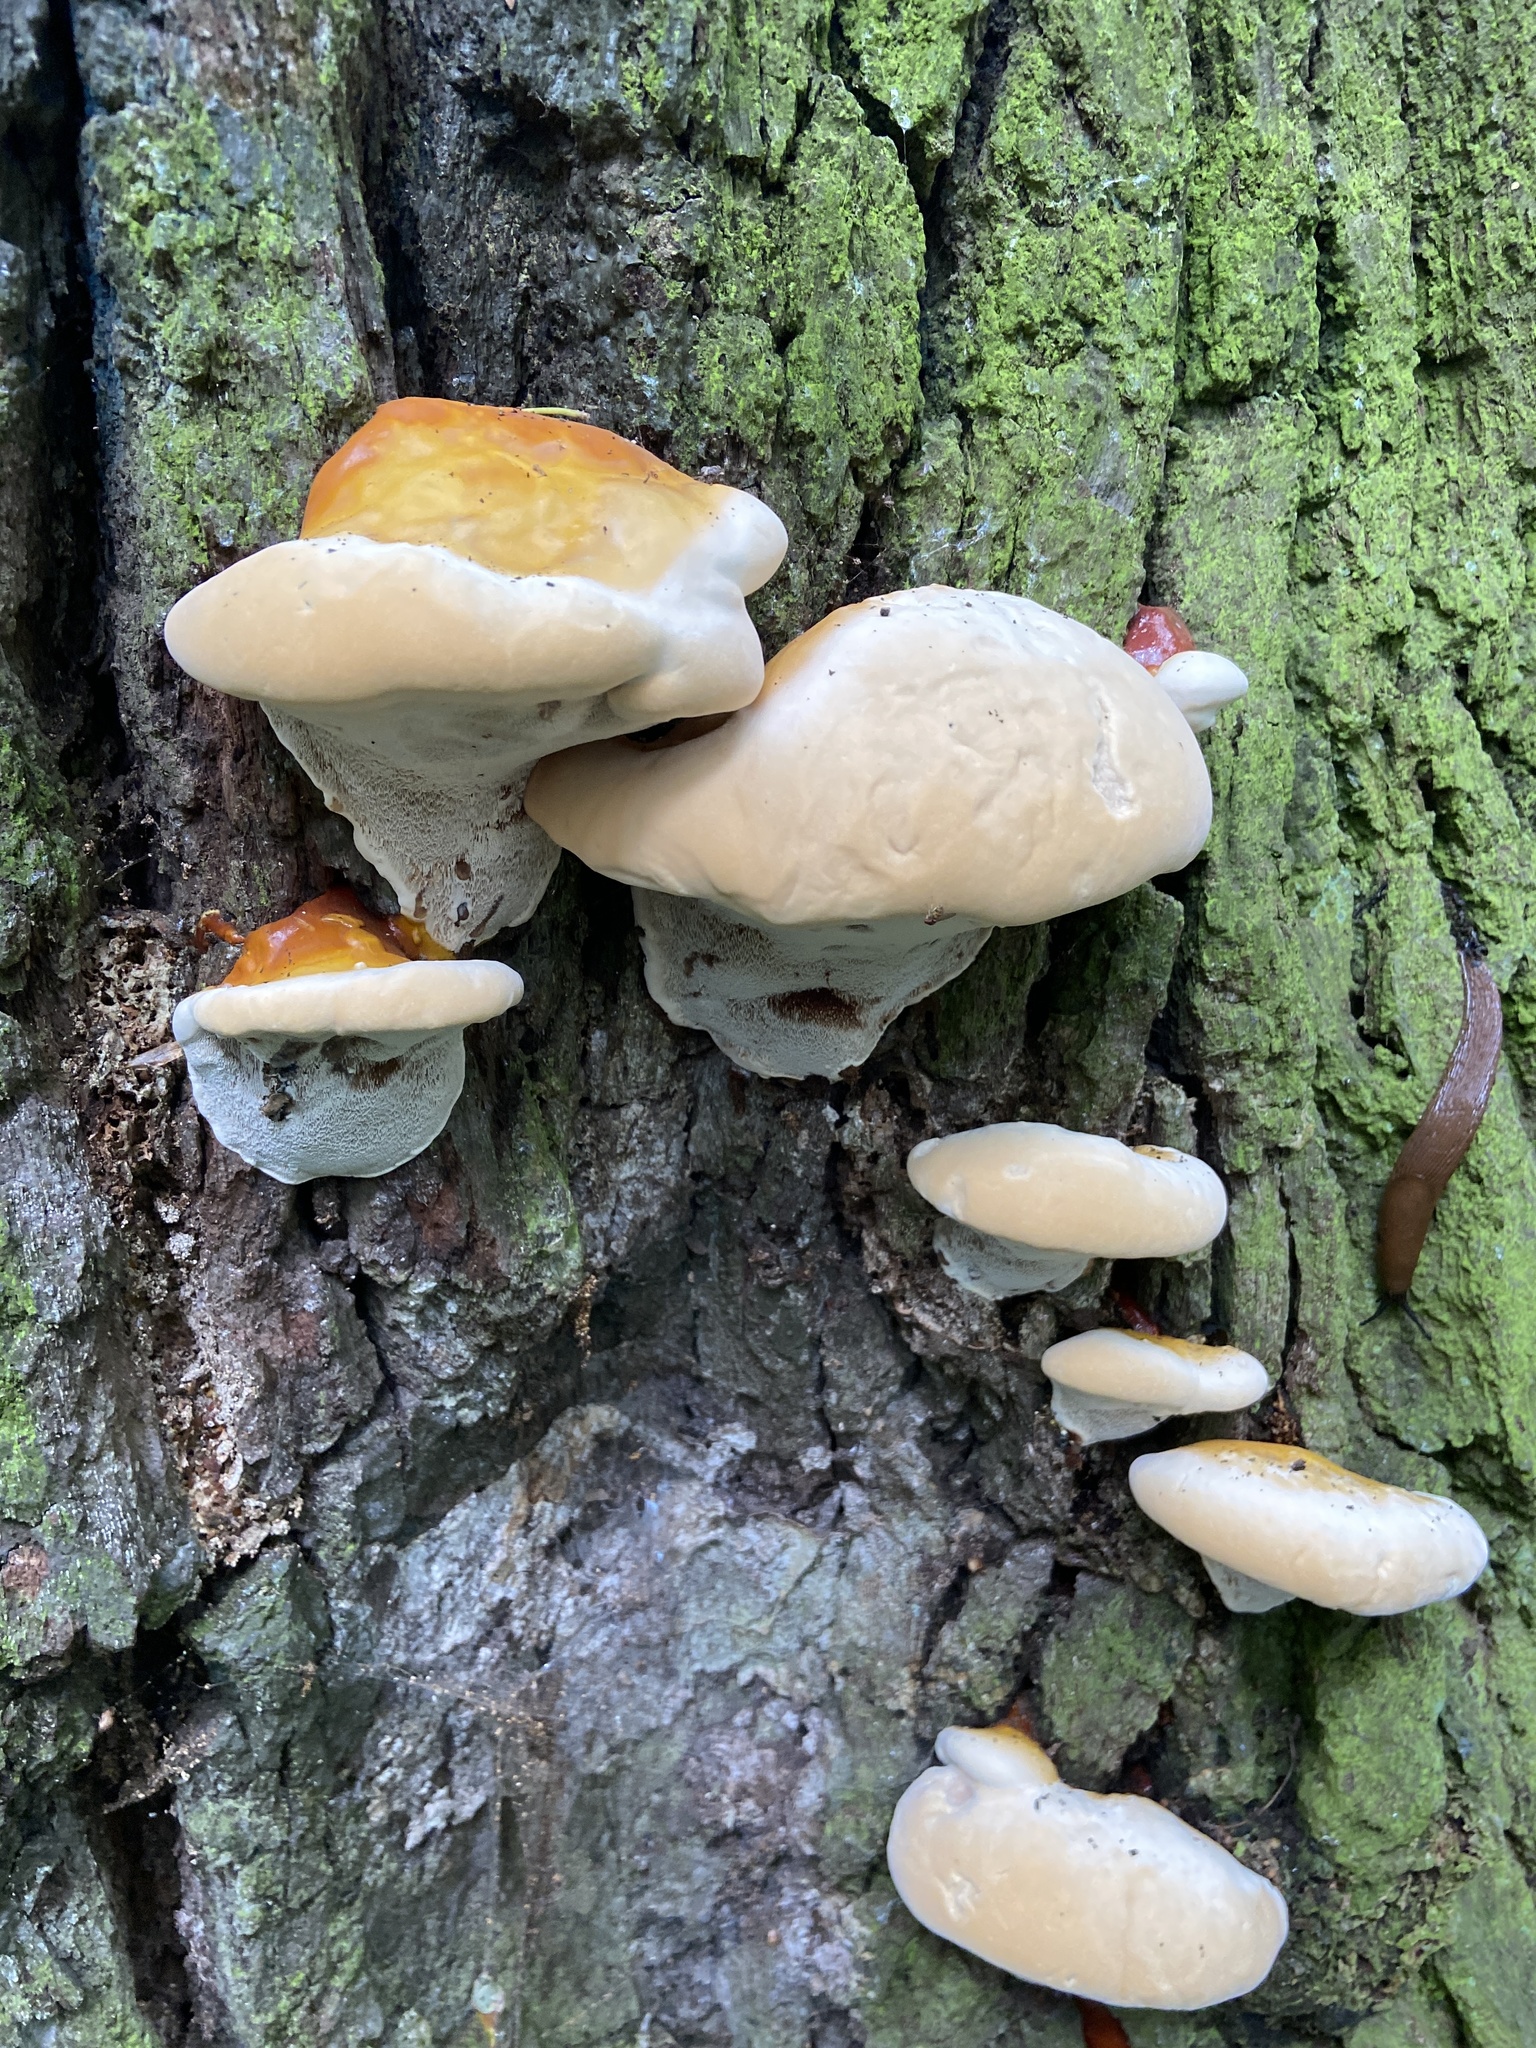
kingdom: Fungi
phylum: Basidiomycota
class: Agaricomycetes
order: Polyporales
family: Fomitopsidaceae
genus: Fomitopsis
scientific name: Fomitopsis pinicola
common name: Red-belted bracket
